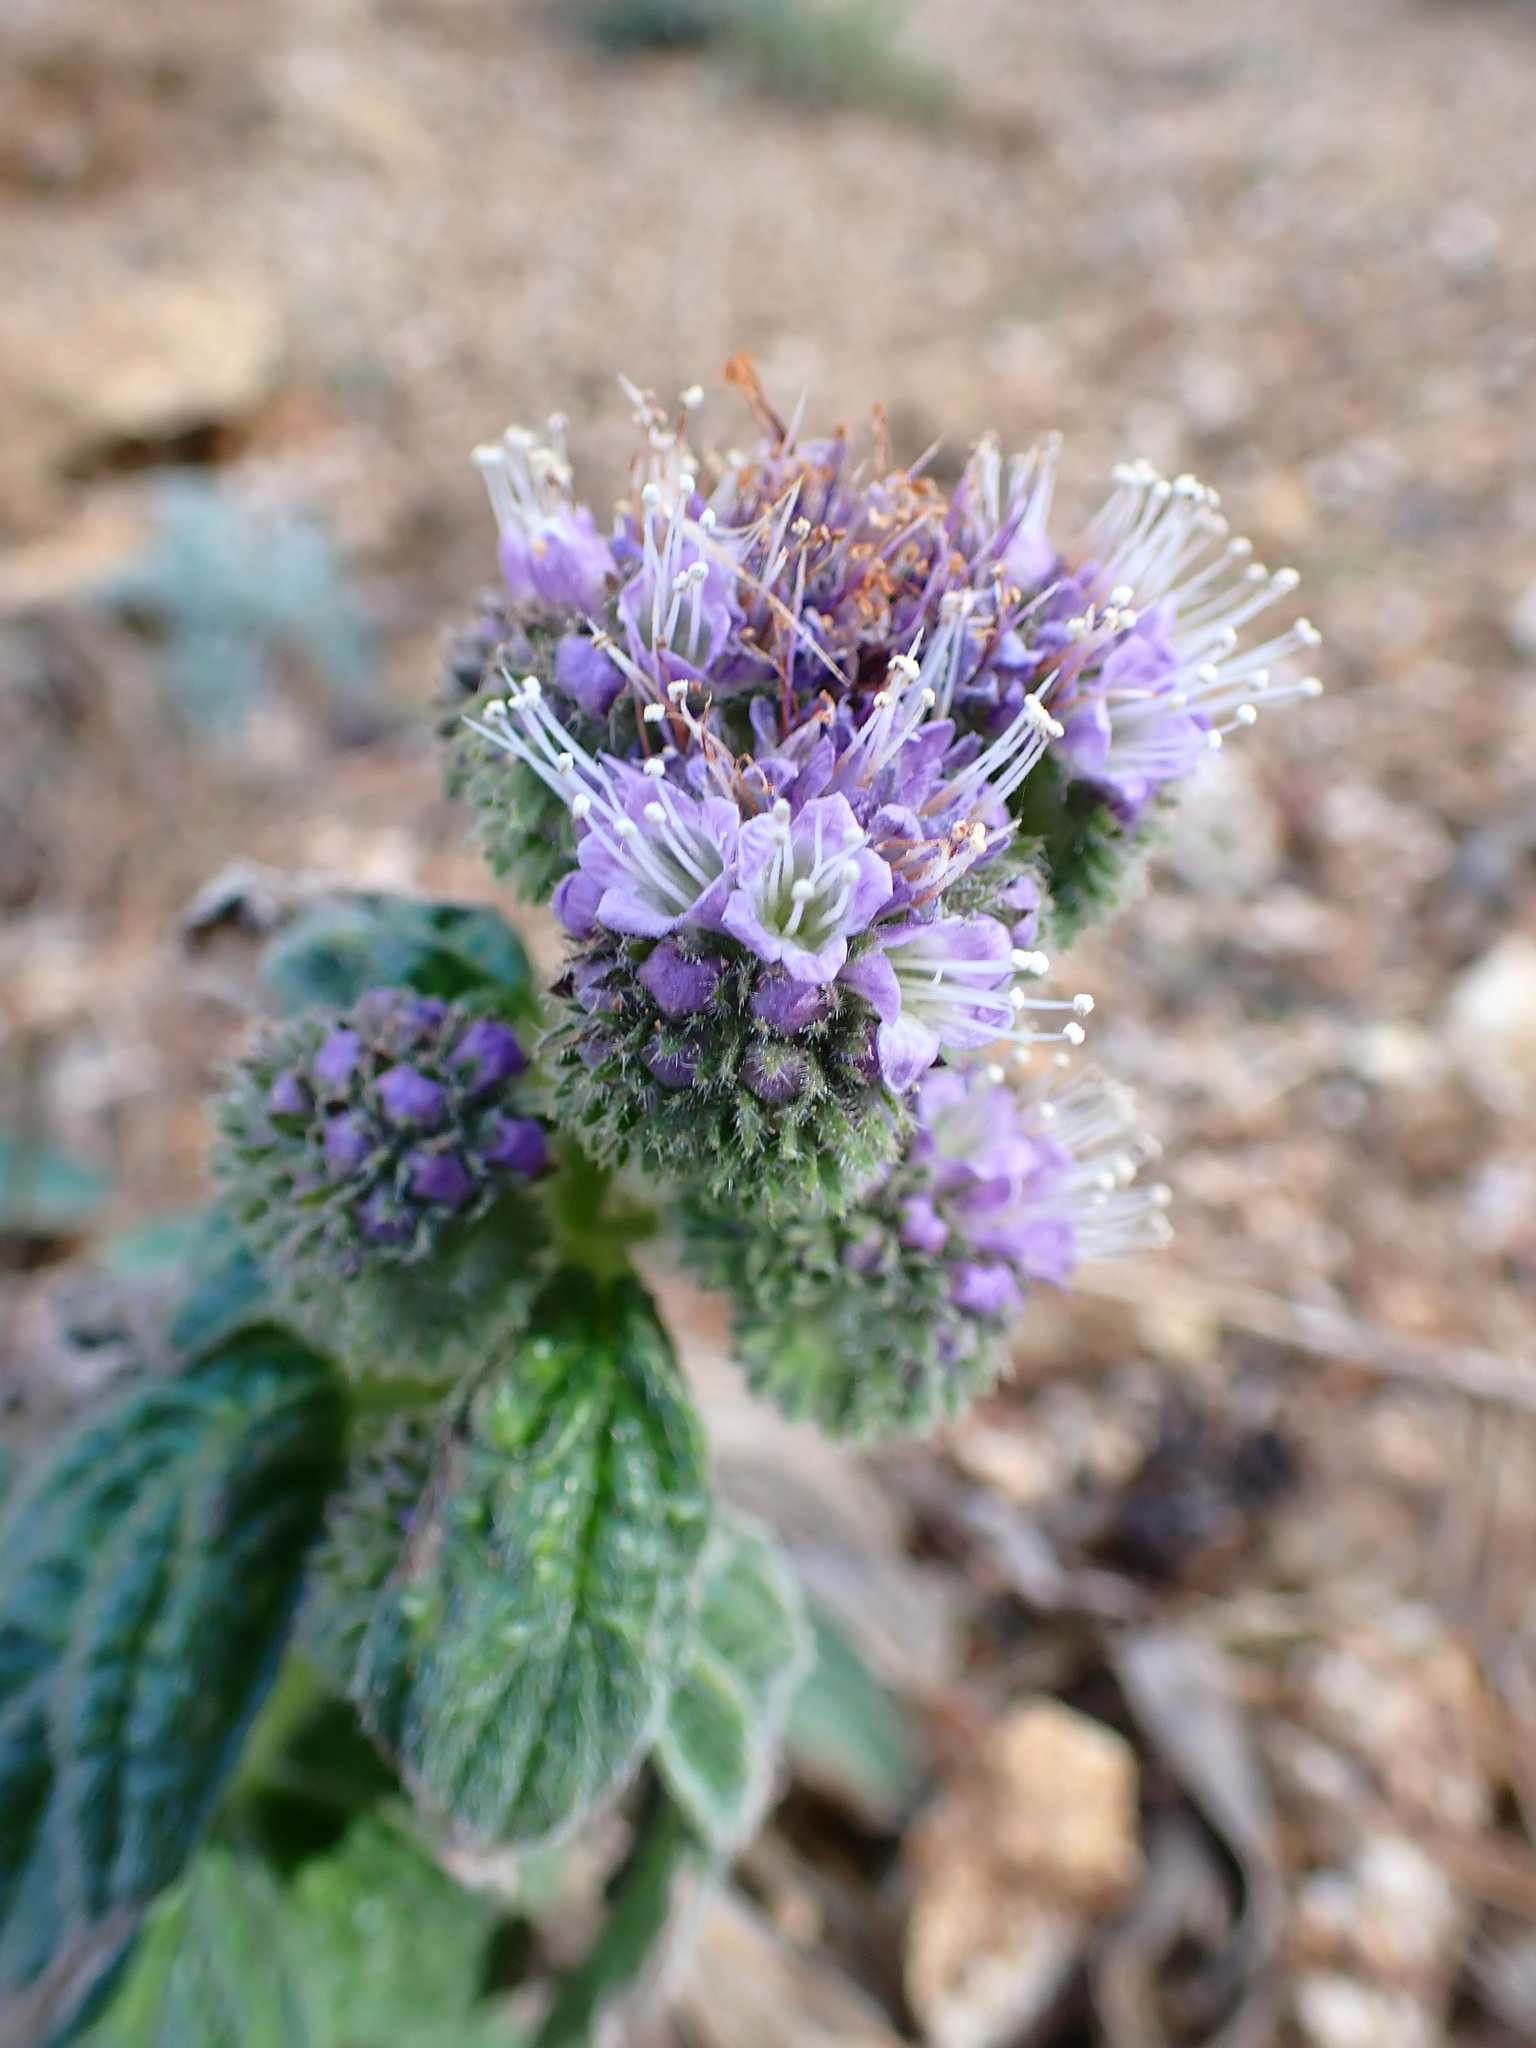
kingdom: Plantae
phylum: Tracheophyta
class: Magnoliopsida
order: Boraginales
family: Hydrophyllaceae
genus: Phacelia
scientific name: Phacelia californica
